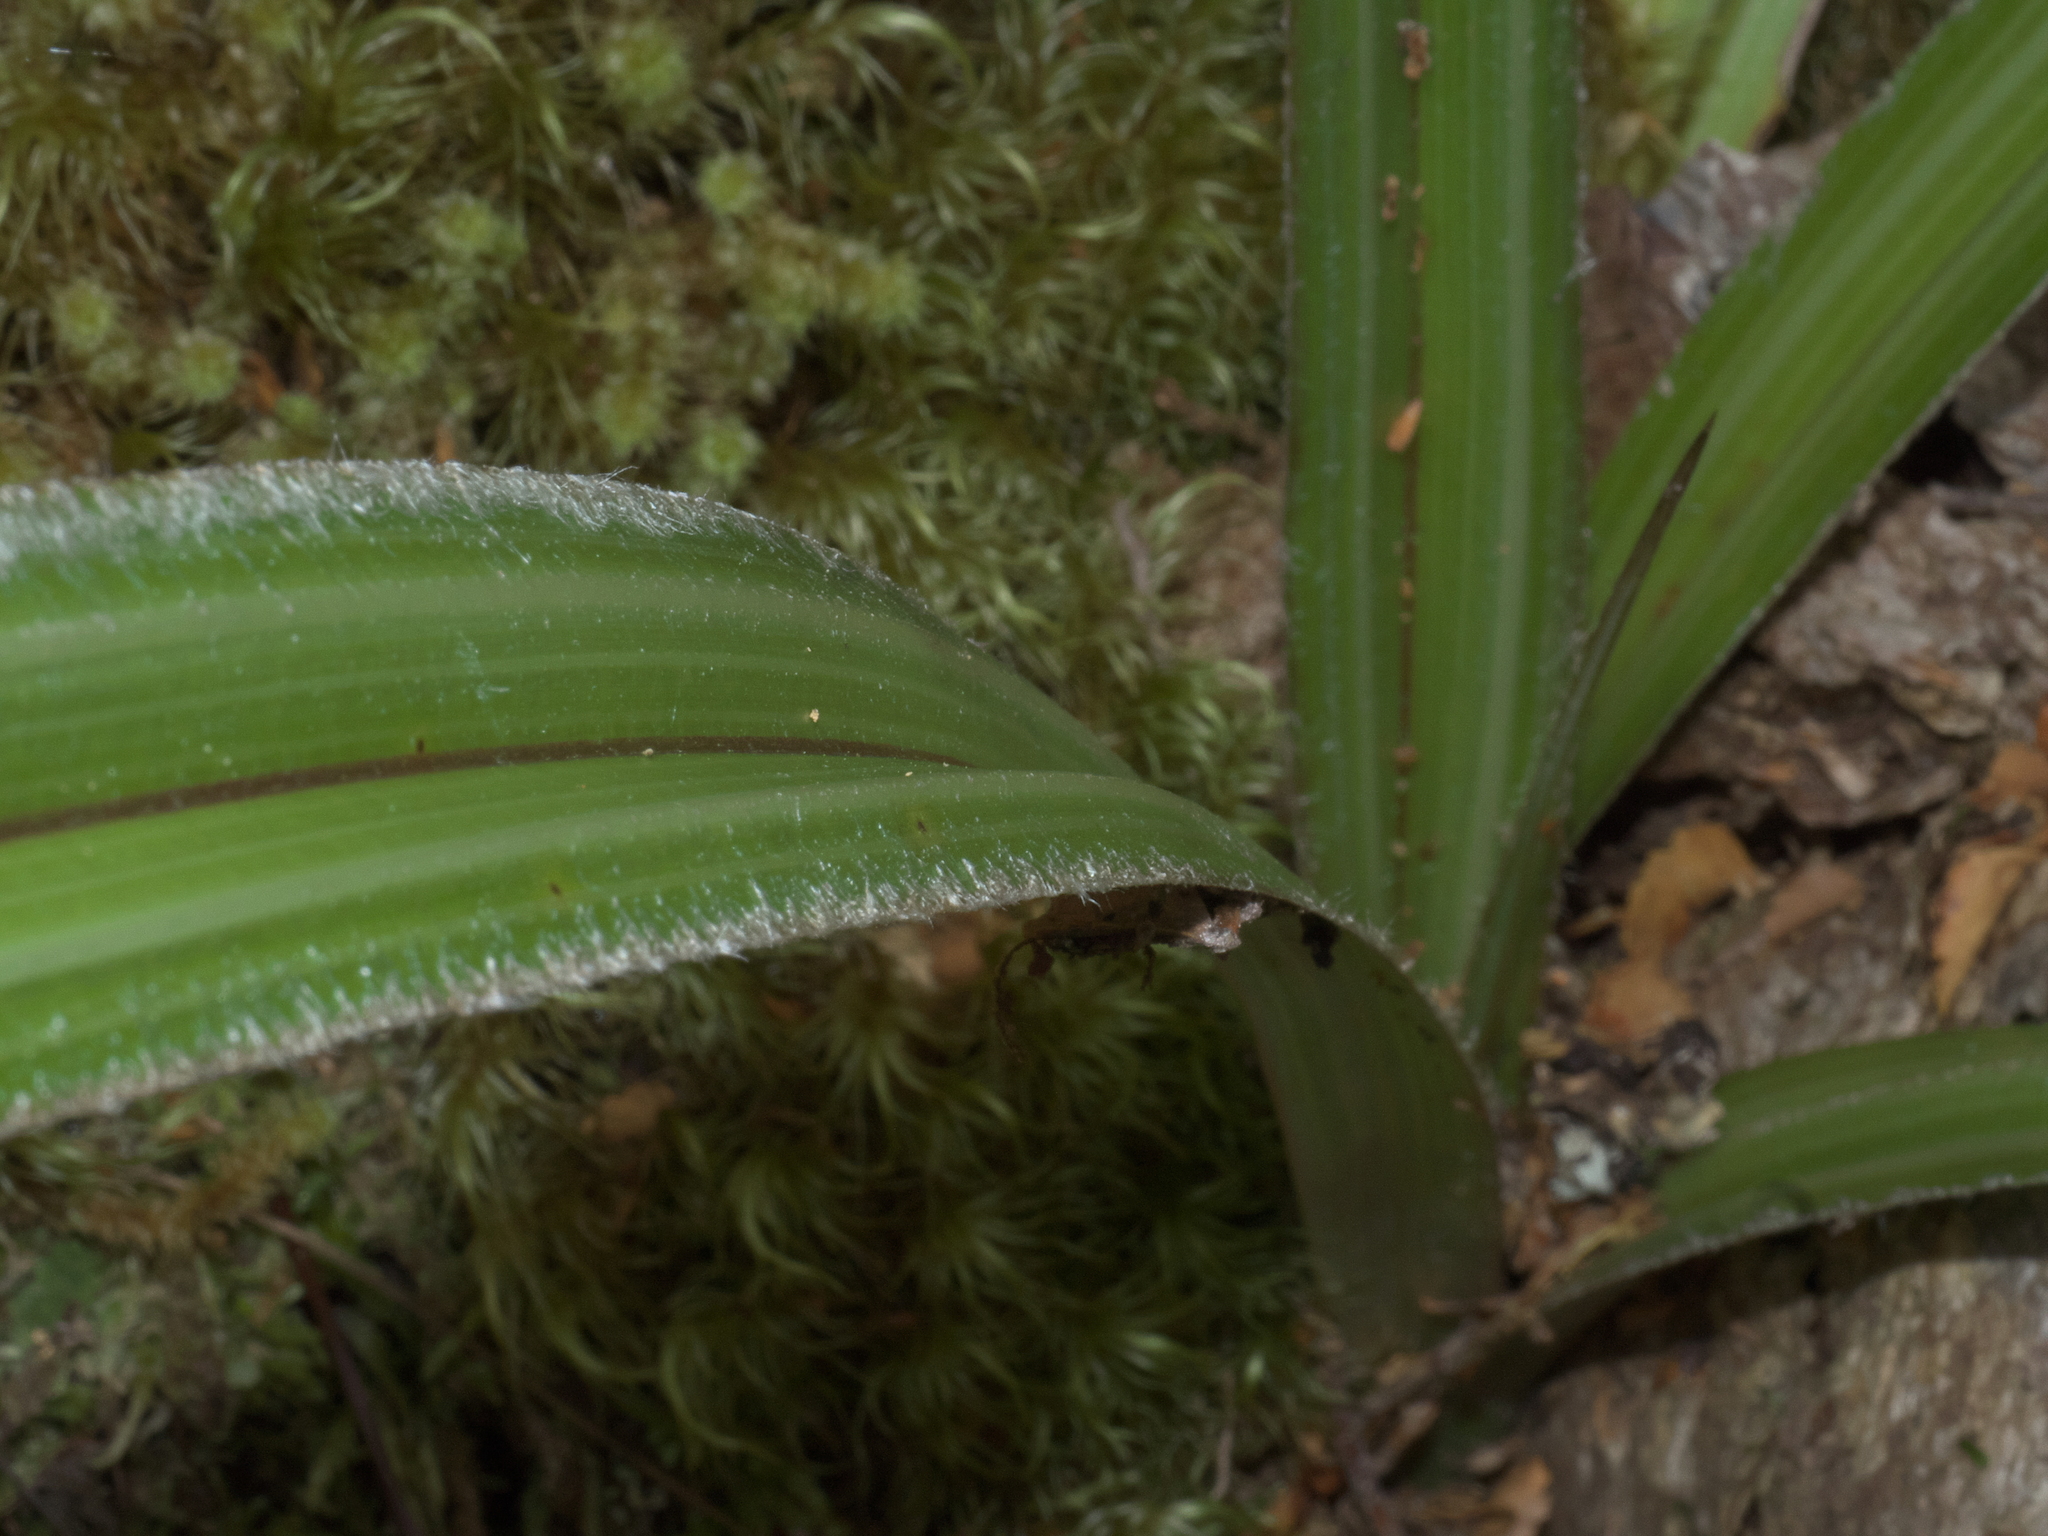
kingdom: Plantae
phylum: Tracheophyta
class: Liliopsida
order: Asparagales
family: Asteliaceae
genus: Astelia
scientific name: Astelia nervosa
